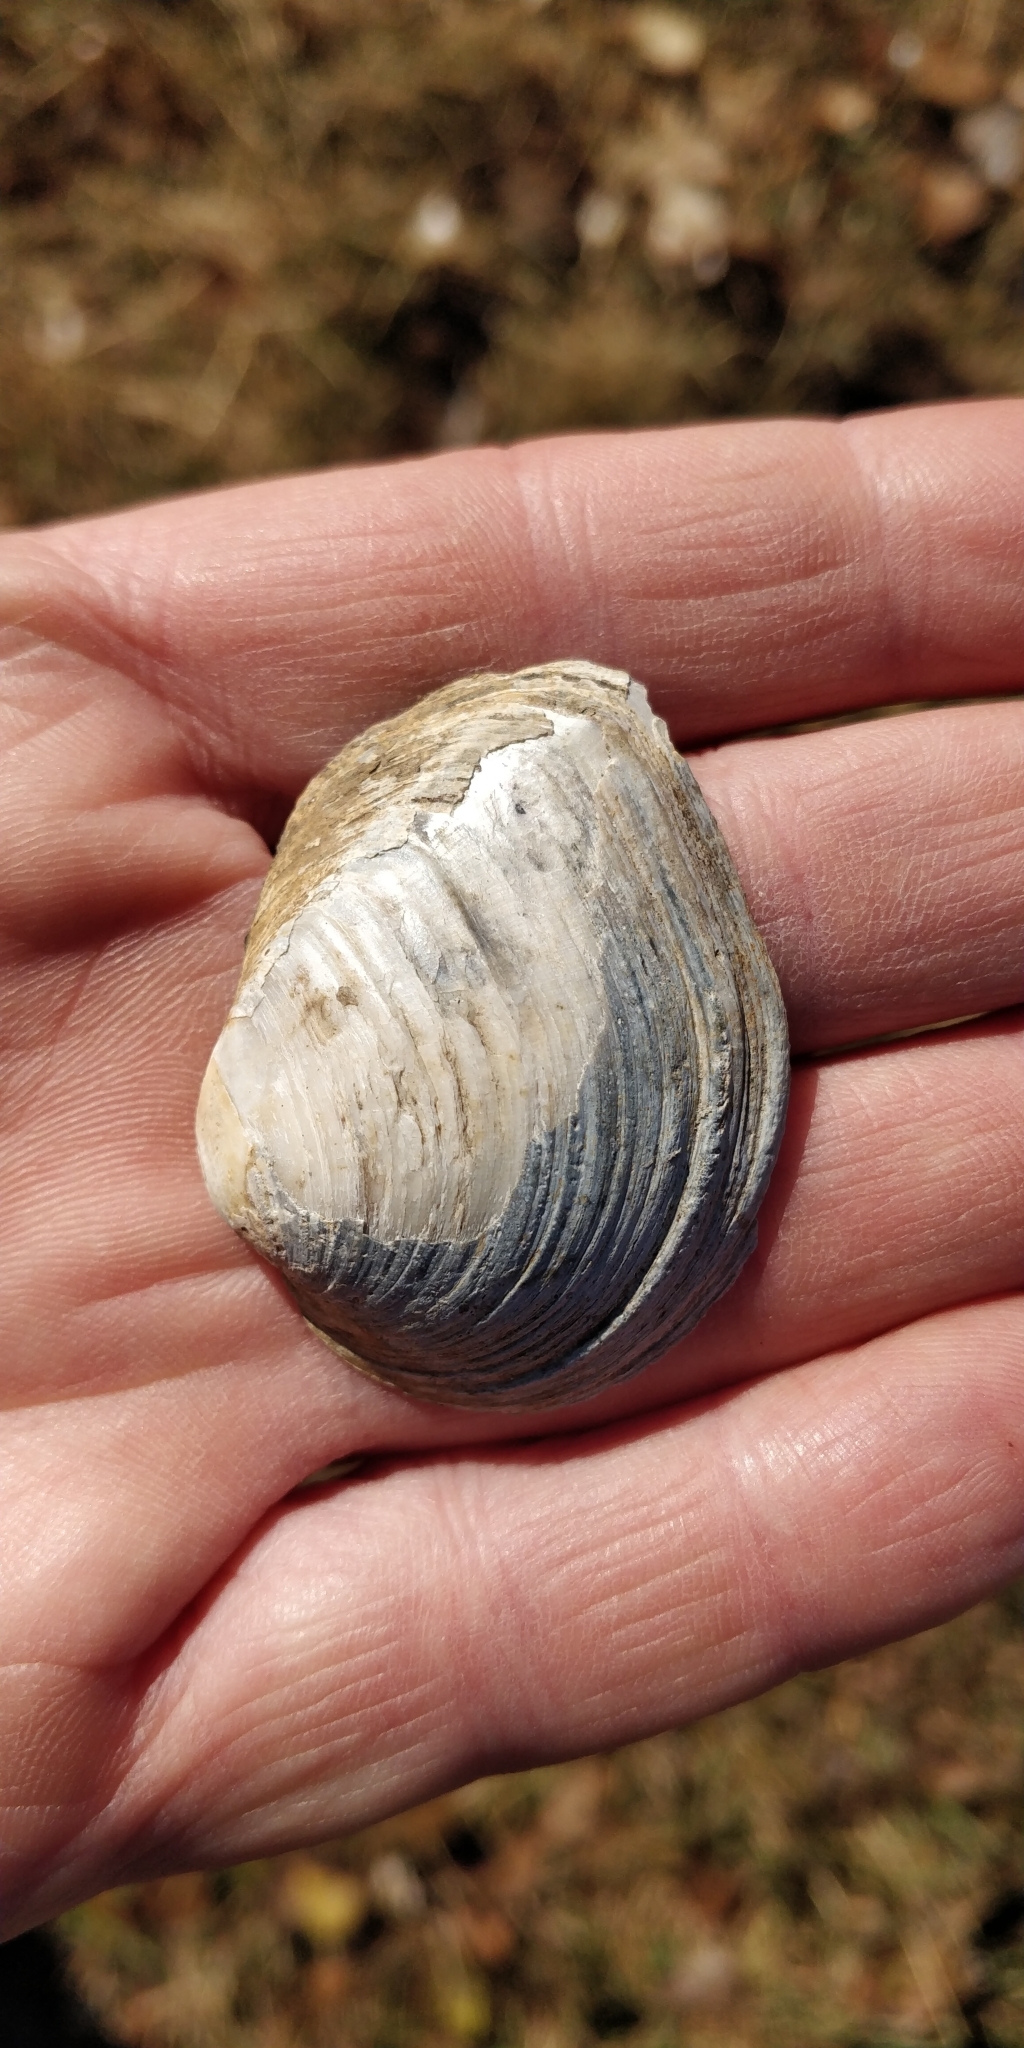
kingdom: Animalia
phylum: Mollusca
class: Bivalvia
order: Unionida
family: Unionidae
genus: Fusconaia
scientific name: Fusconaia flava
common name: Wabash pigtoe
